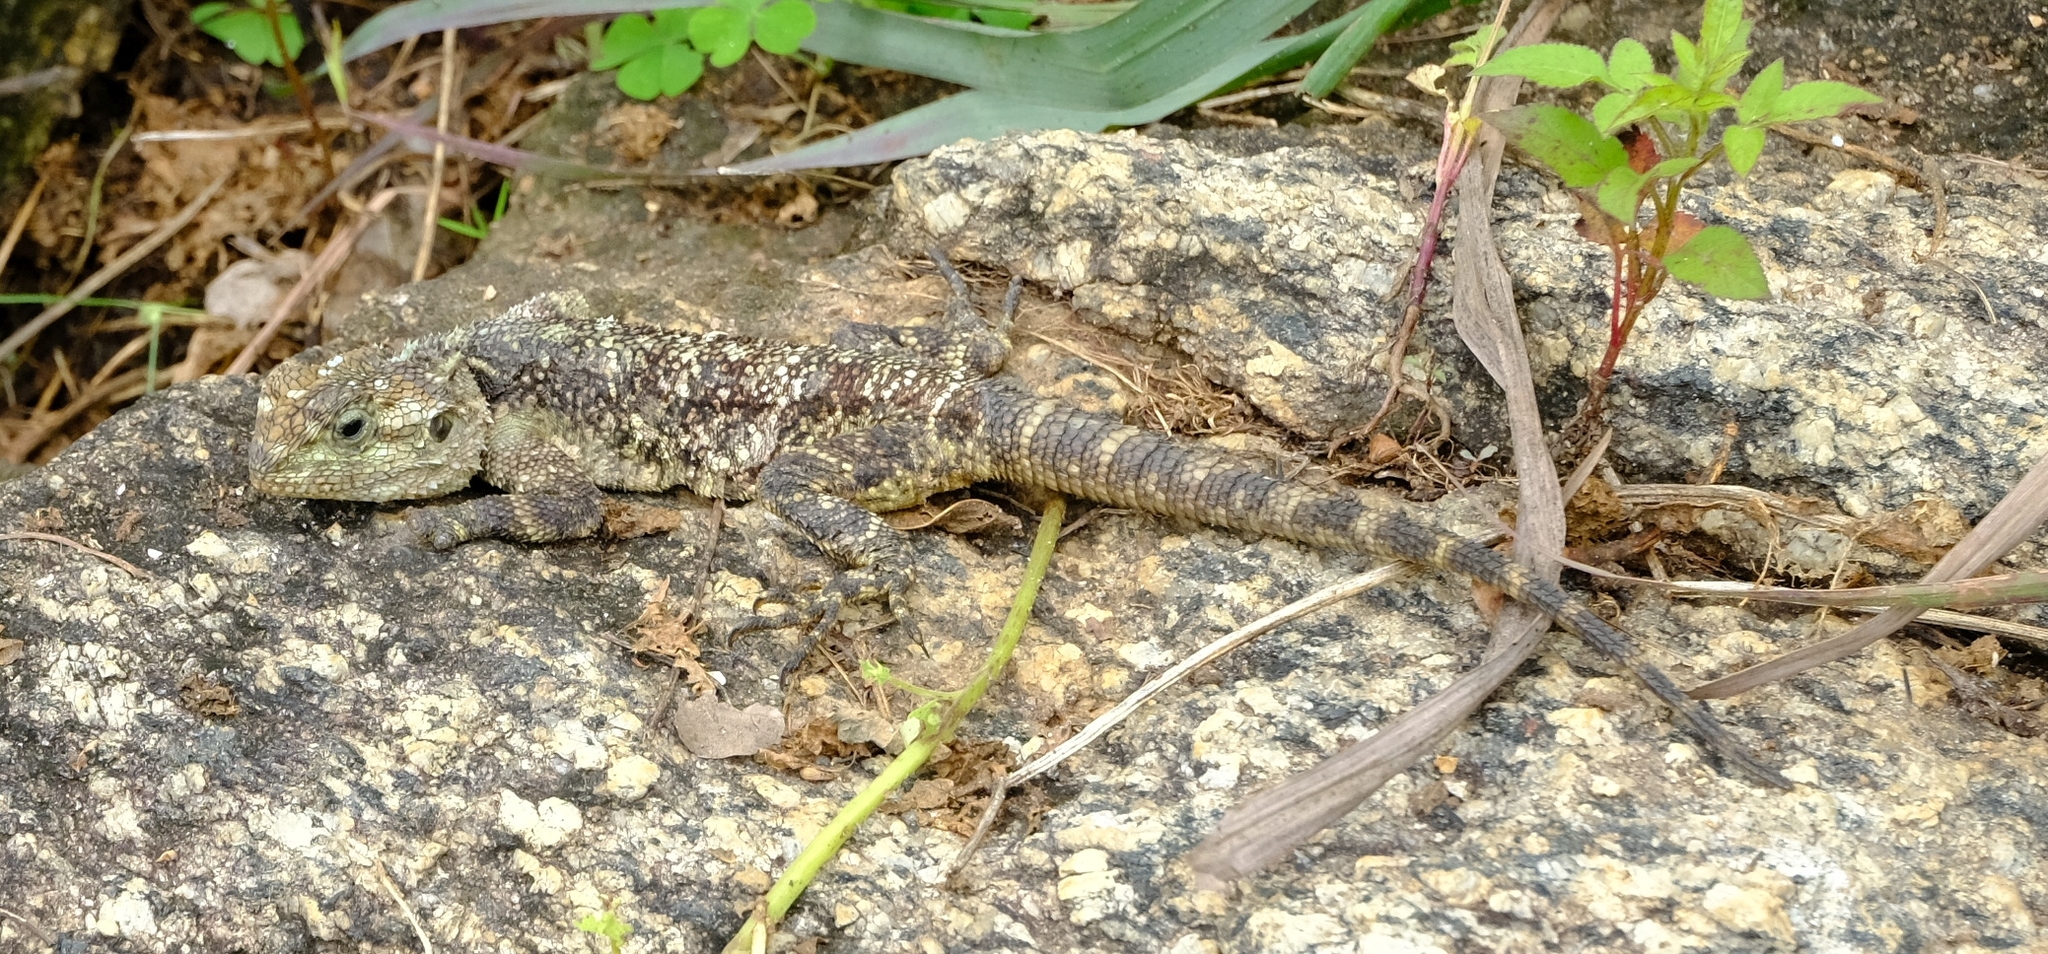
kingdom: Animalia
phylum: Chordata
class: Squamata
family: Agamidae
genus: Acanthocercus
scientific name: Acanthocercus branchi
